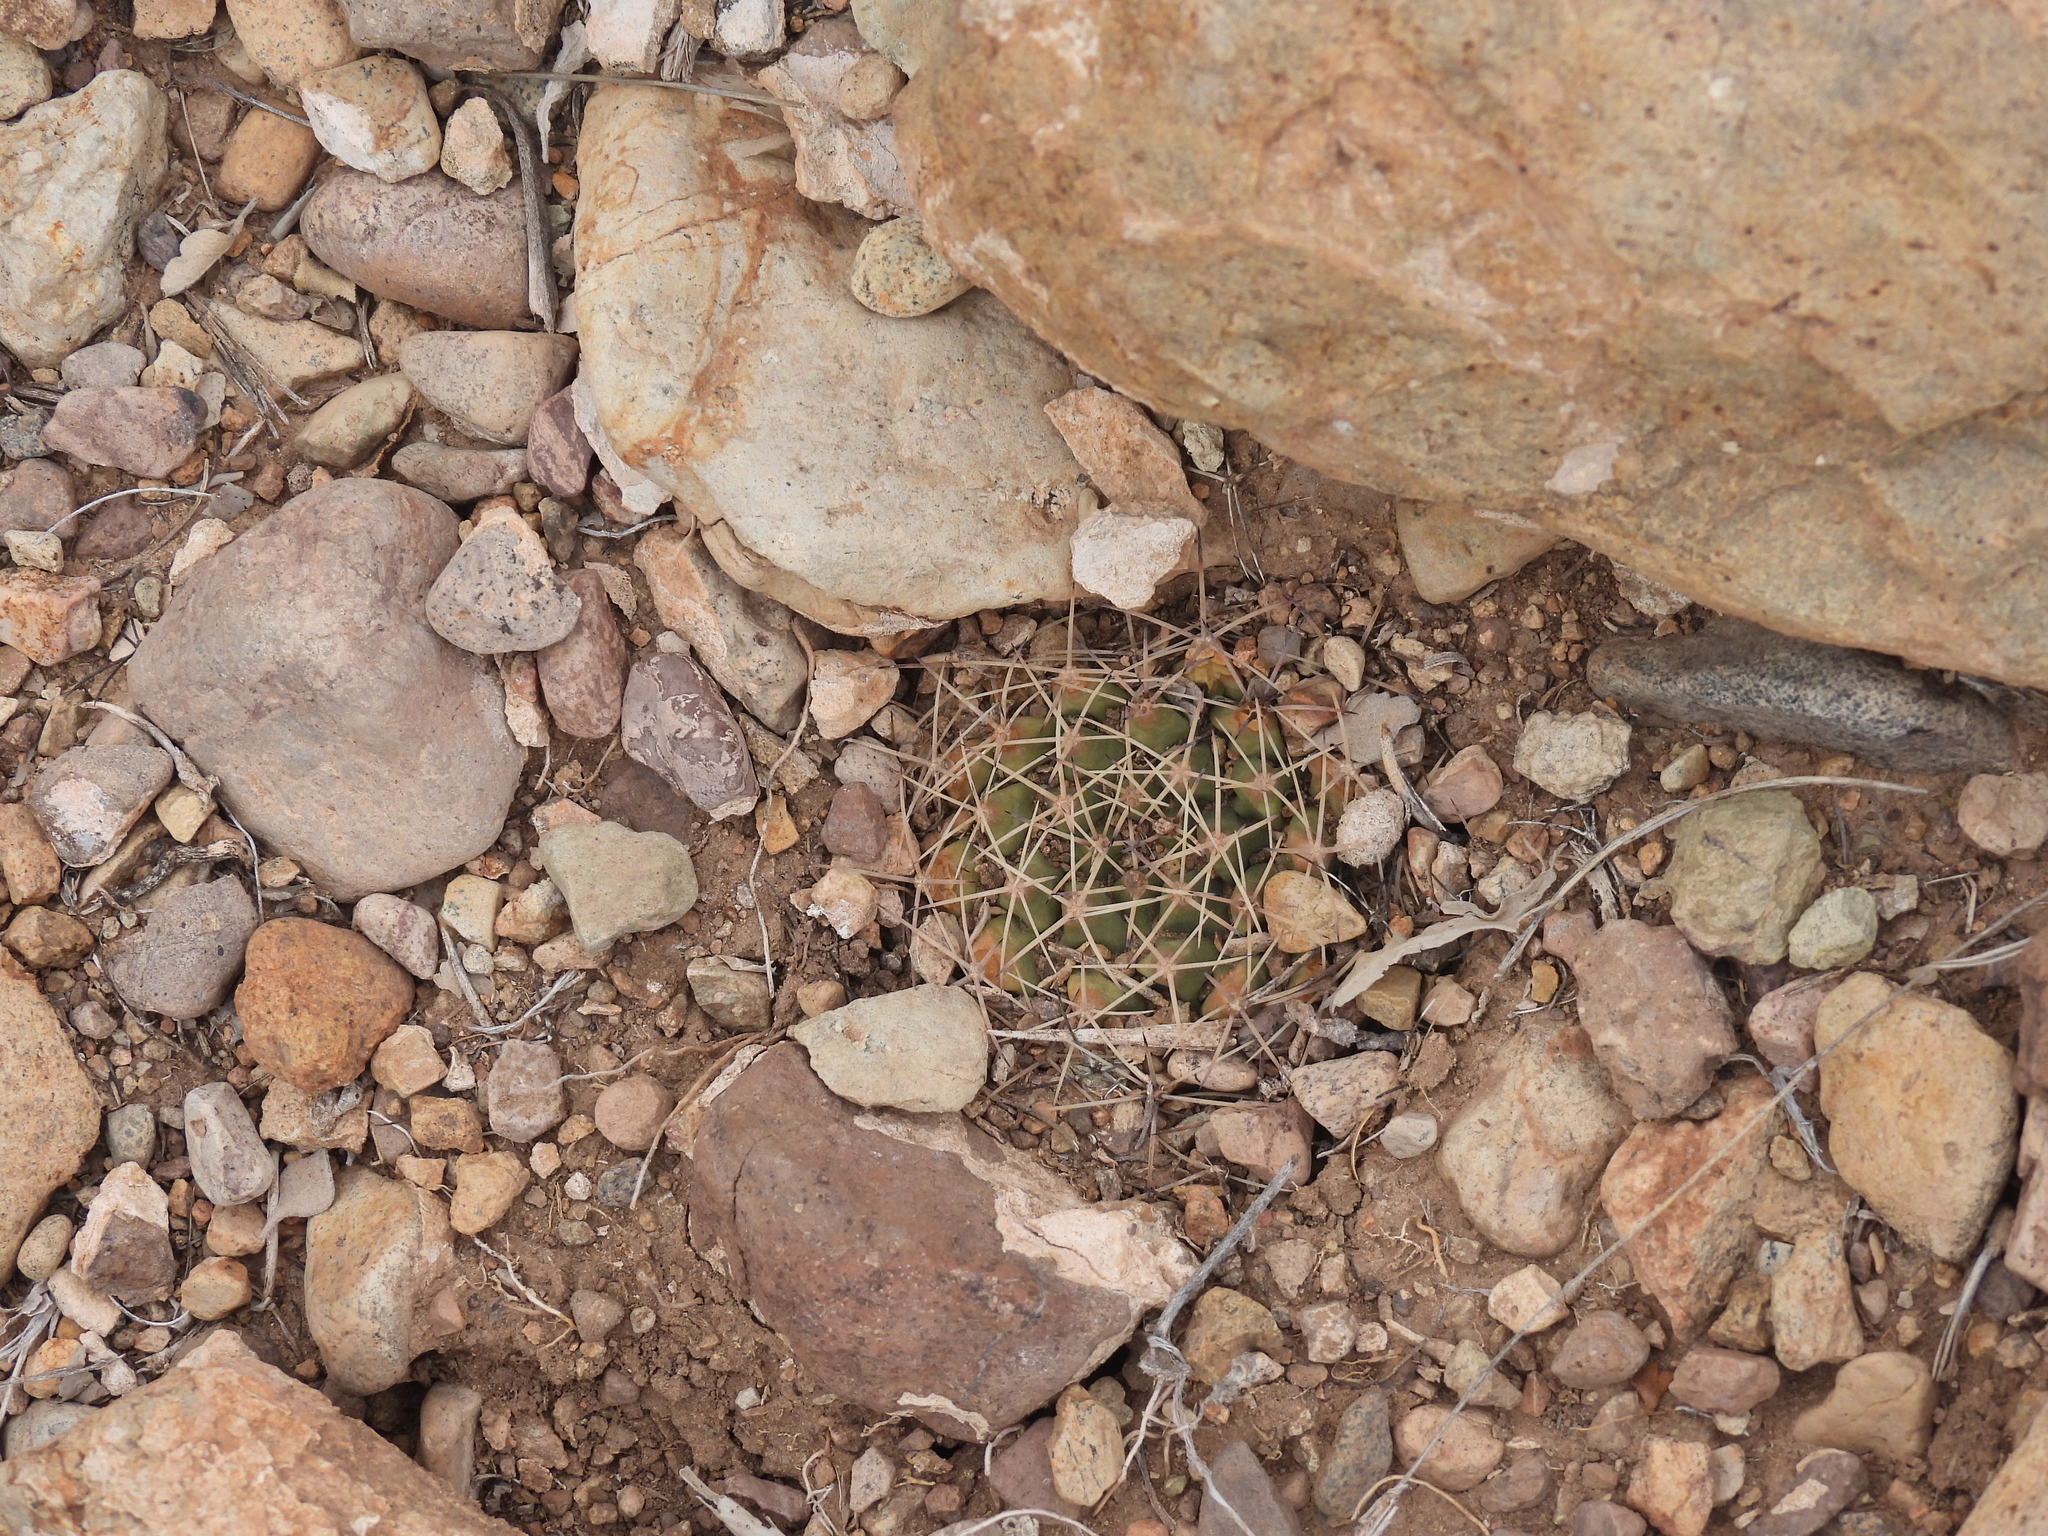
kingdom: Plantae
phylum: Tracheophyta
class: Magnoliopsida
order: Caryophyllales
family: Cactaceae
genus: Mammillaria
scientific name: Mammillaria heyderi
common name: Little nipple cactus
